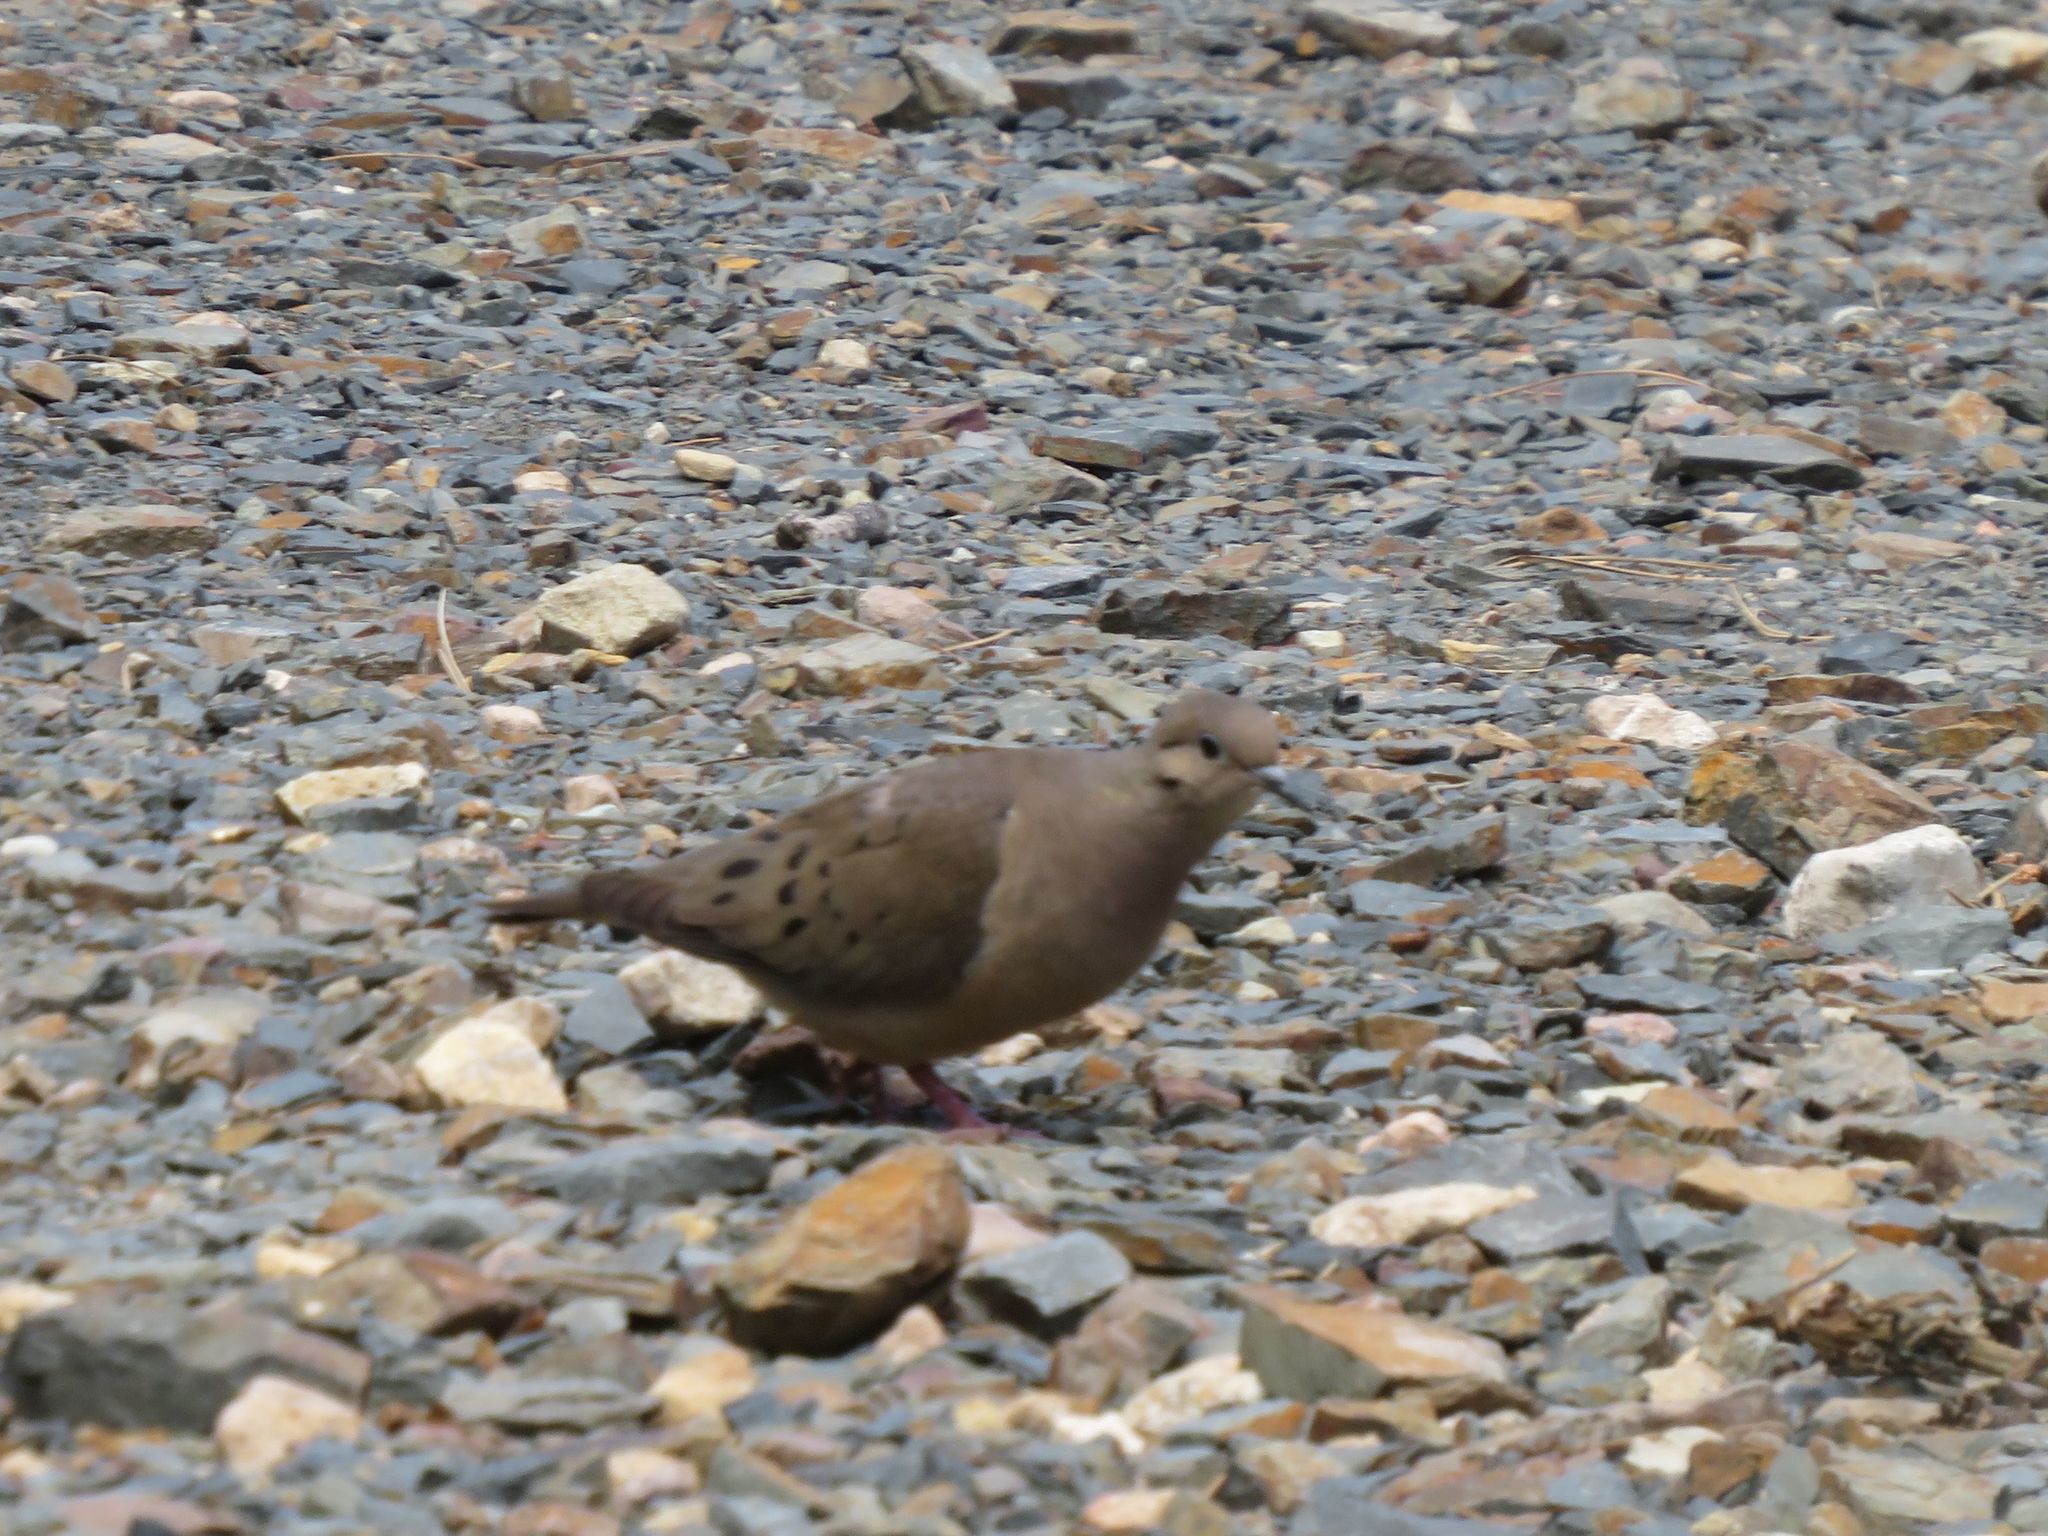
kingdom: Animalia
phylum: Chordata
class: Aves
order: Columbiformes
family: Columbidae
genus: Zenaida
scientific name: Zenaida auriculata
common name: Eared dove
